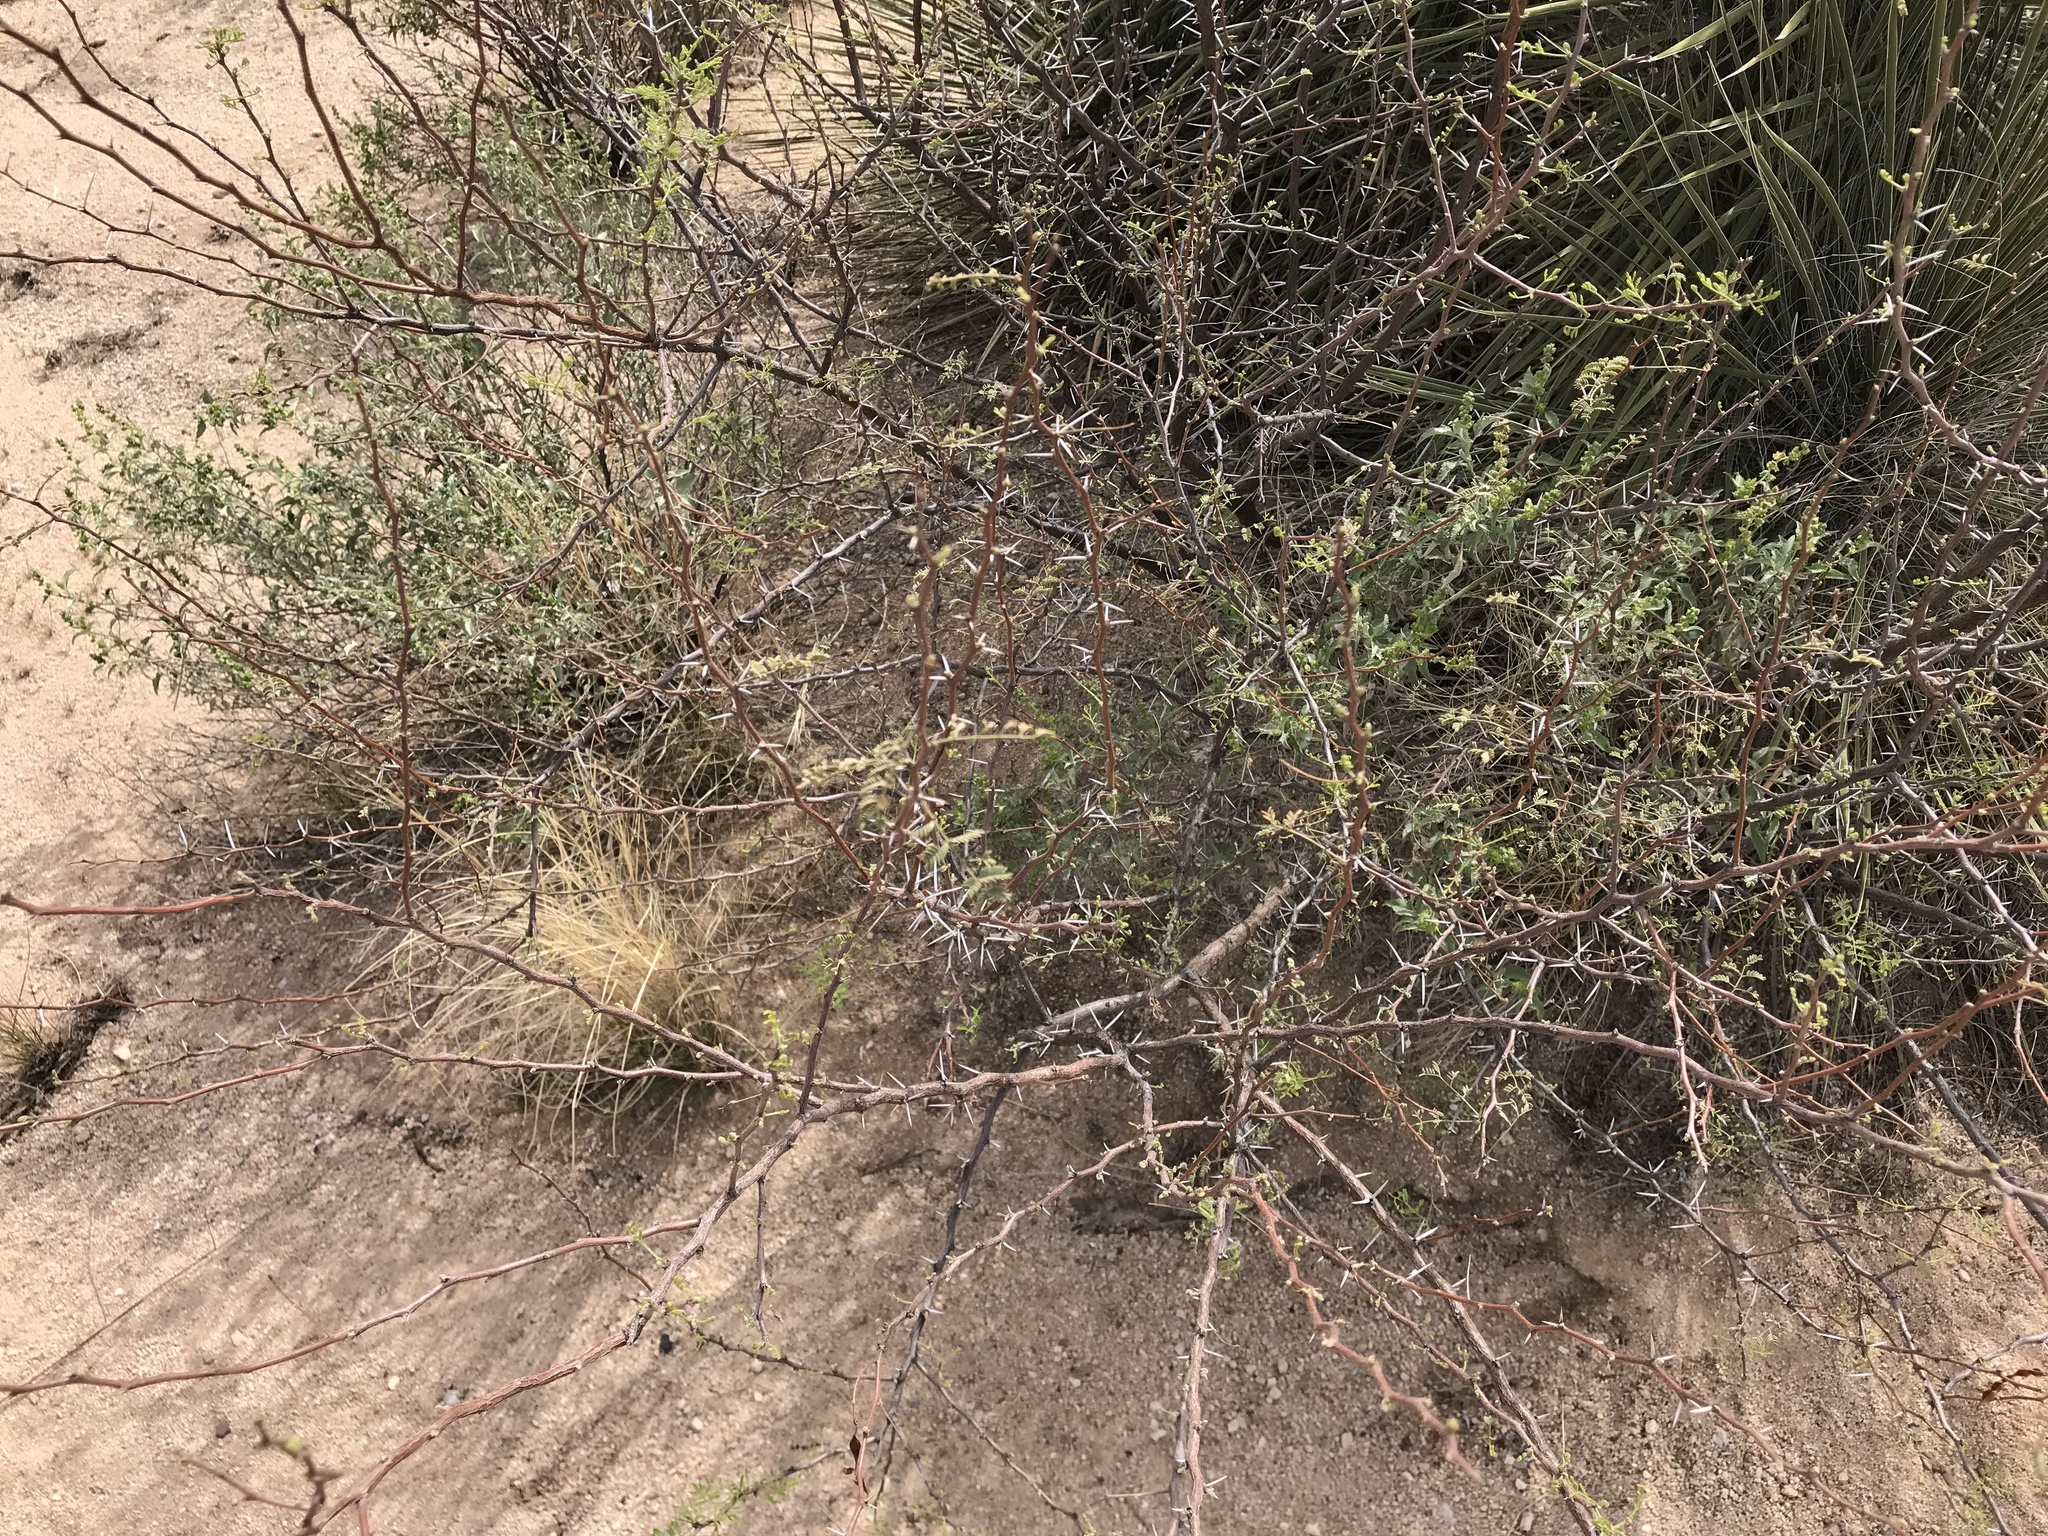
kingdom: Plantae
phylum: Tracheophyta
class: Magnoliopsida
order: Fabales
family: Fabaceae
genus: Vachellia
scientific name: Vachellia constricta
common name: Mescat acacia
